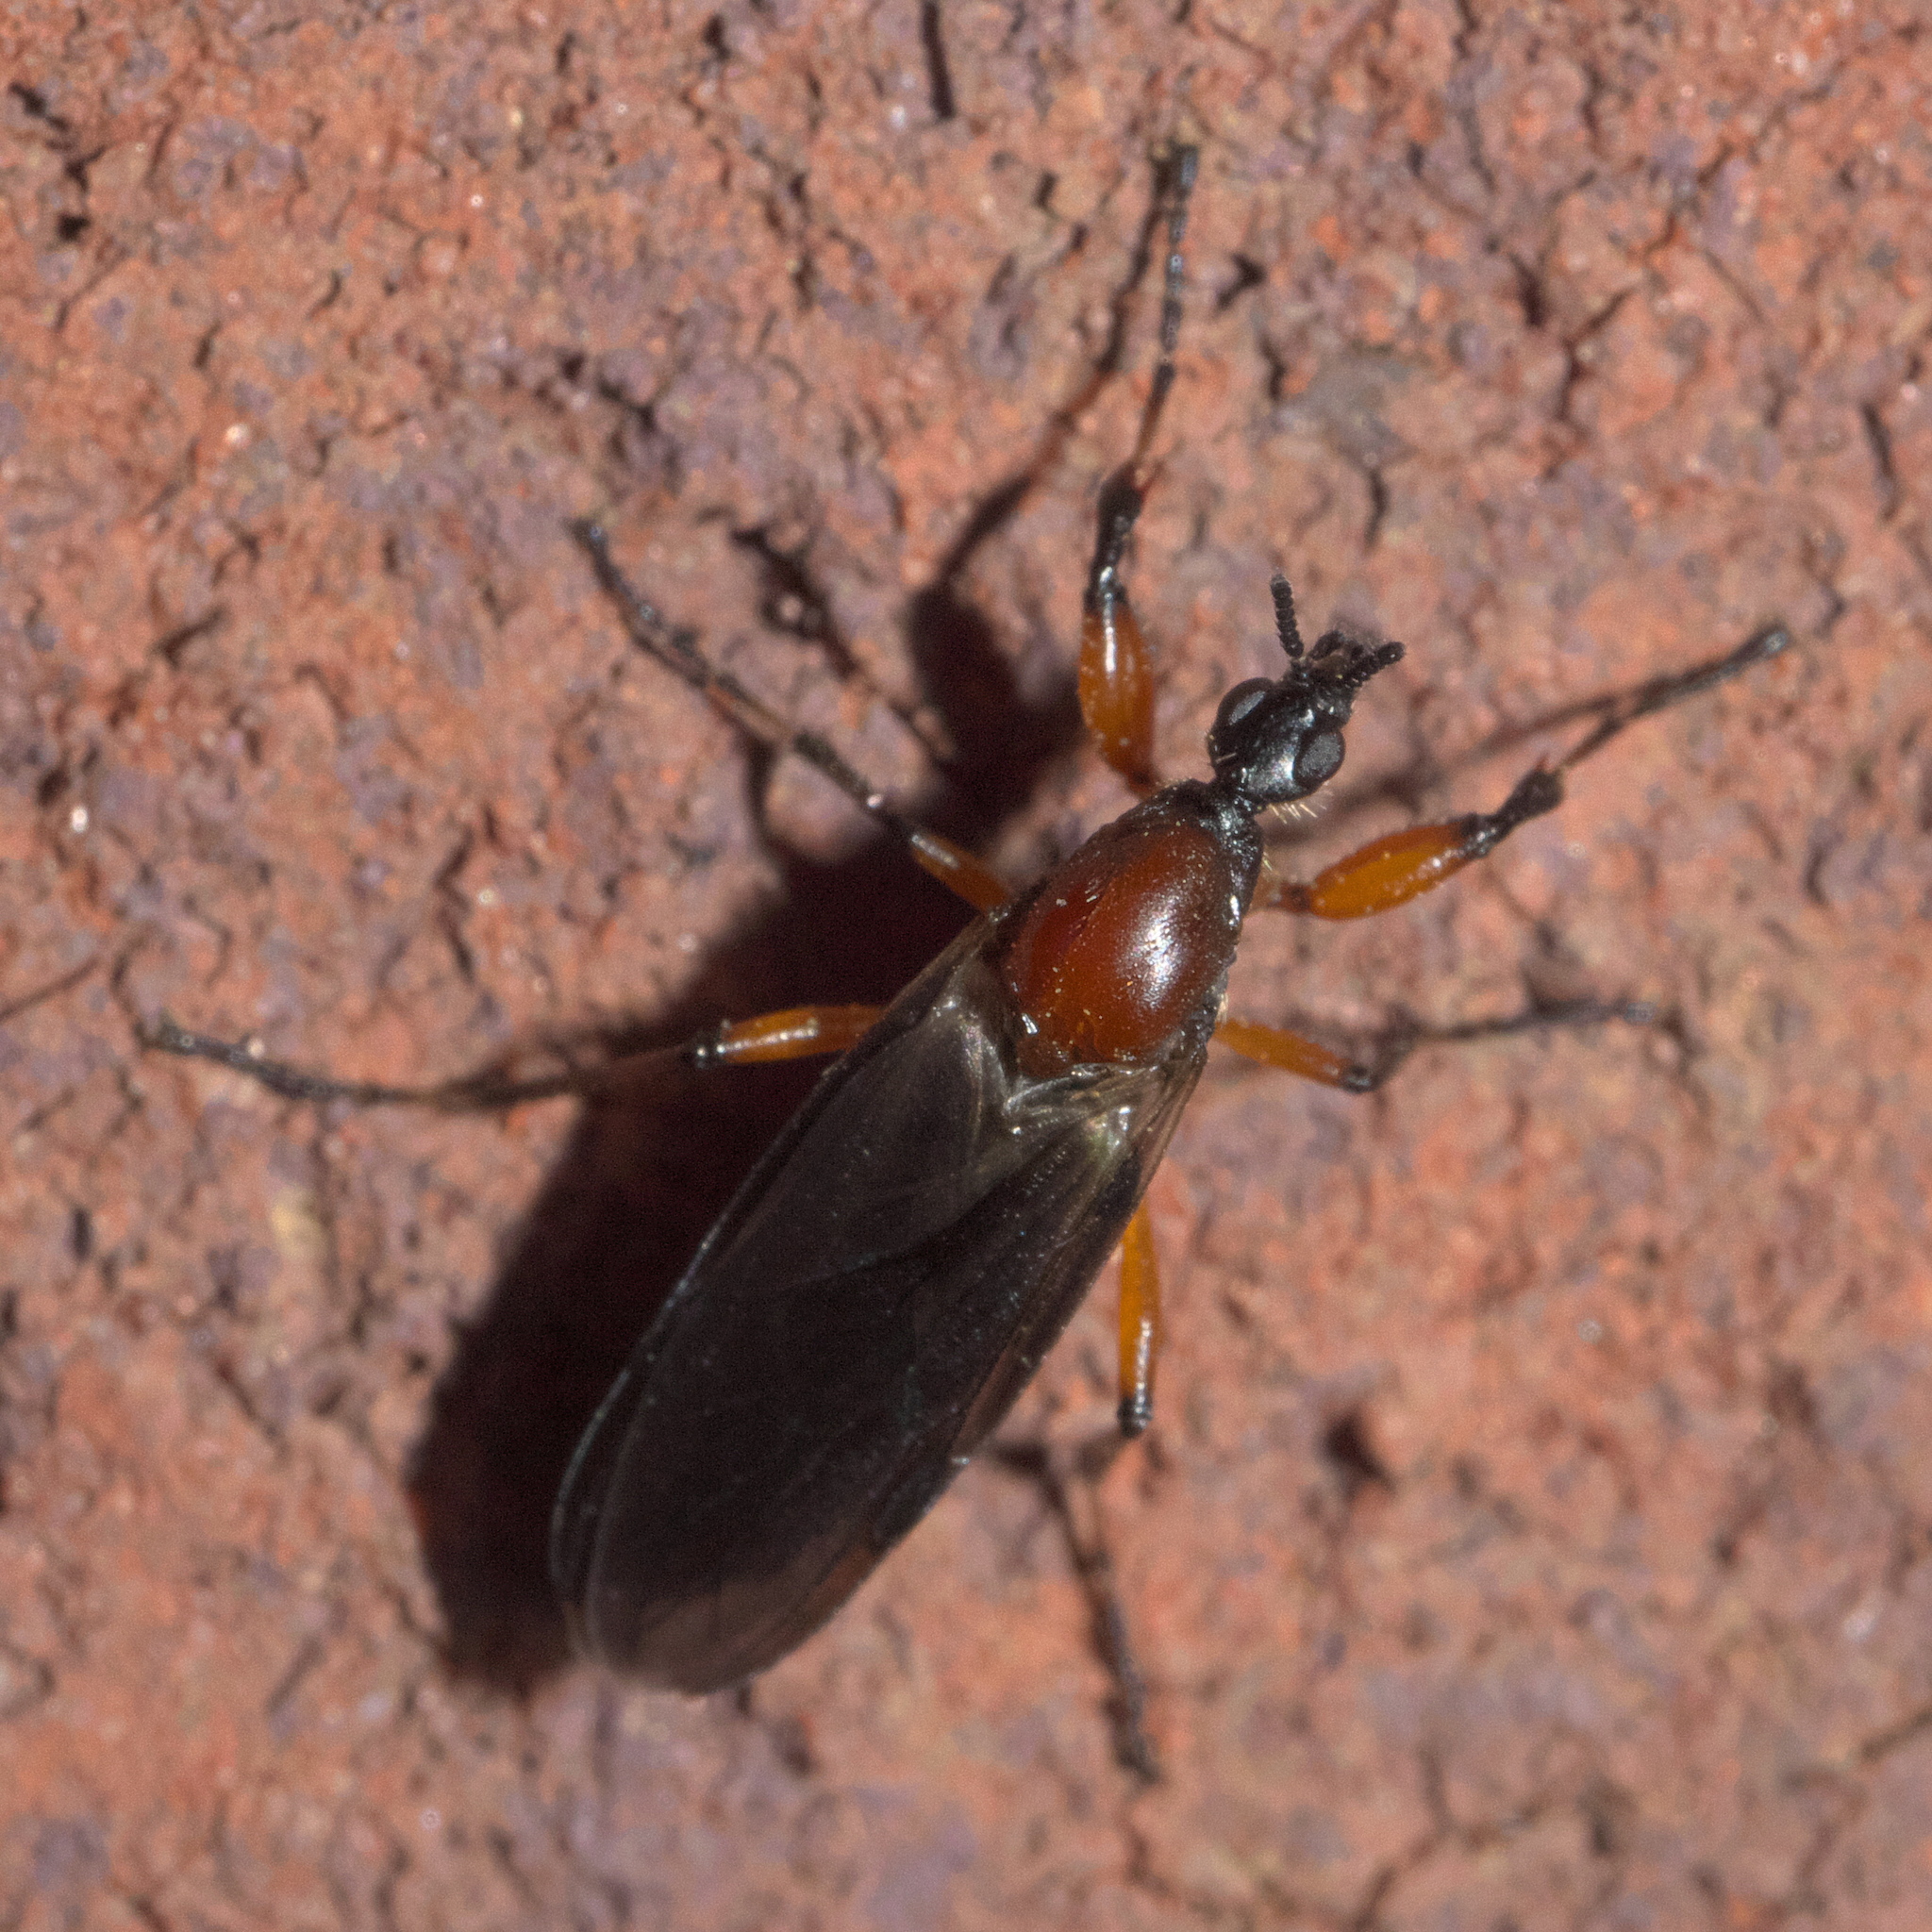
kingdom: Animalia
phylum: Arthropoda
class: Insecta
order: Diptera
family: Bibionidae
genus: Bibio
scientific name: Bibio articulatus
